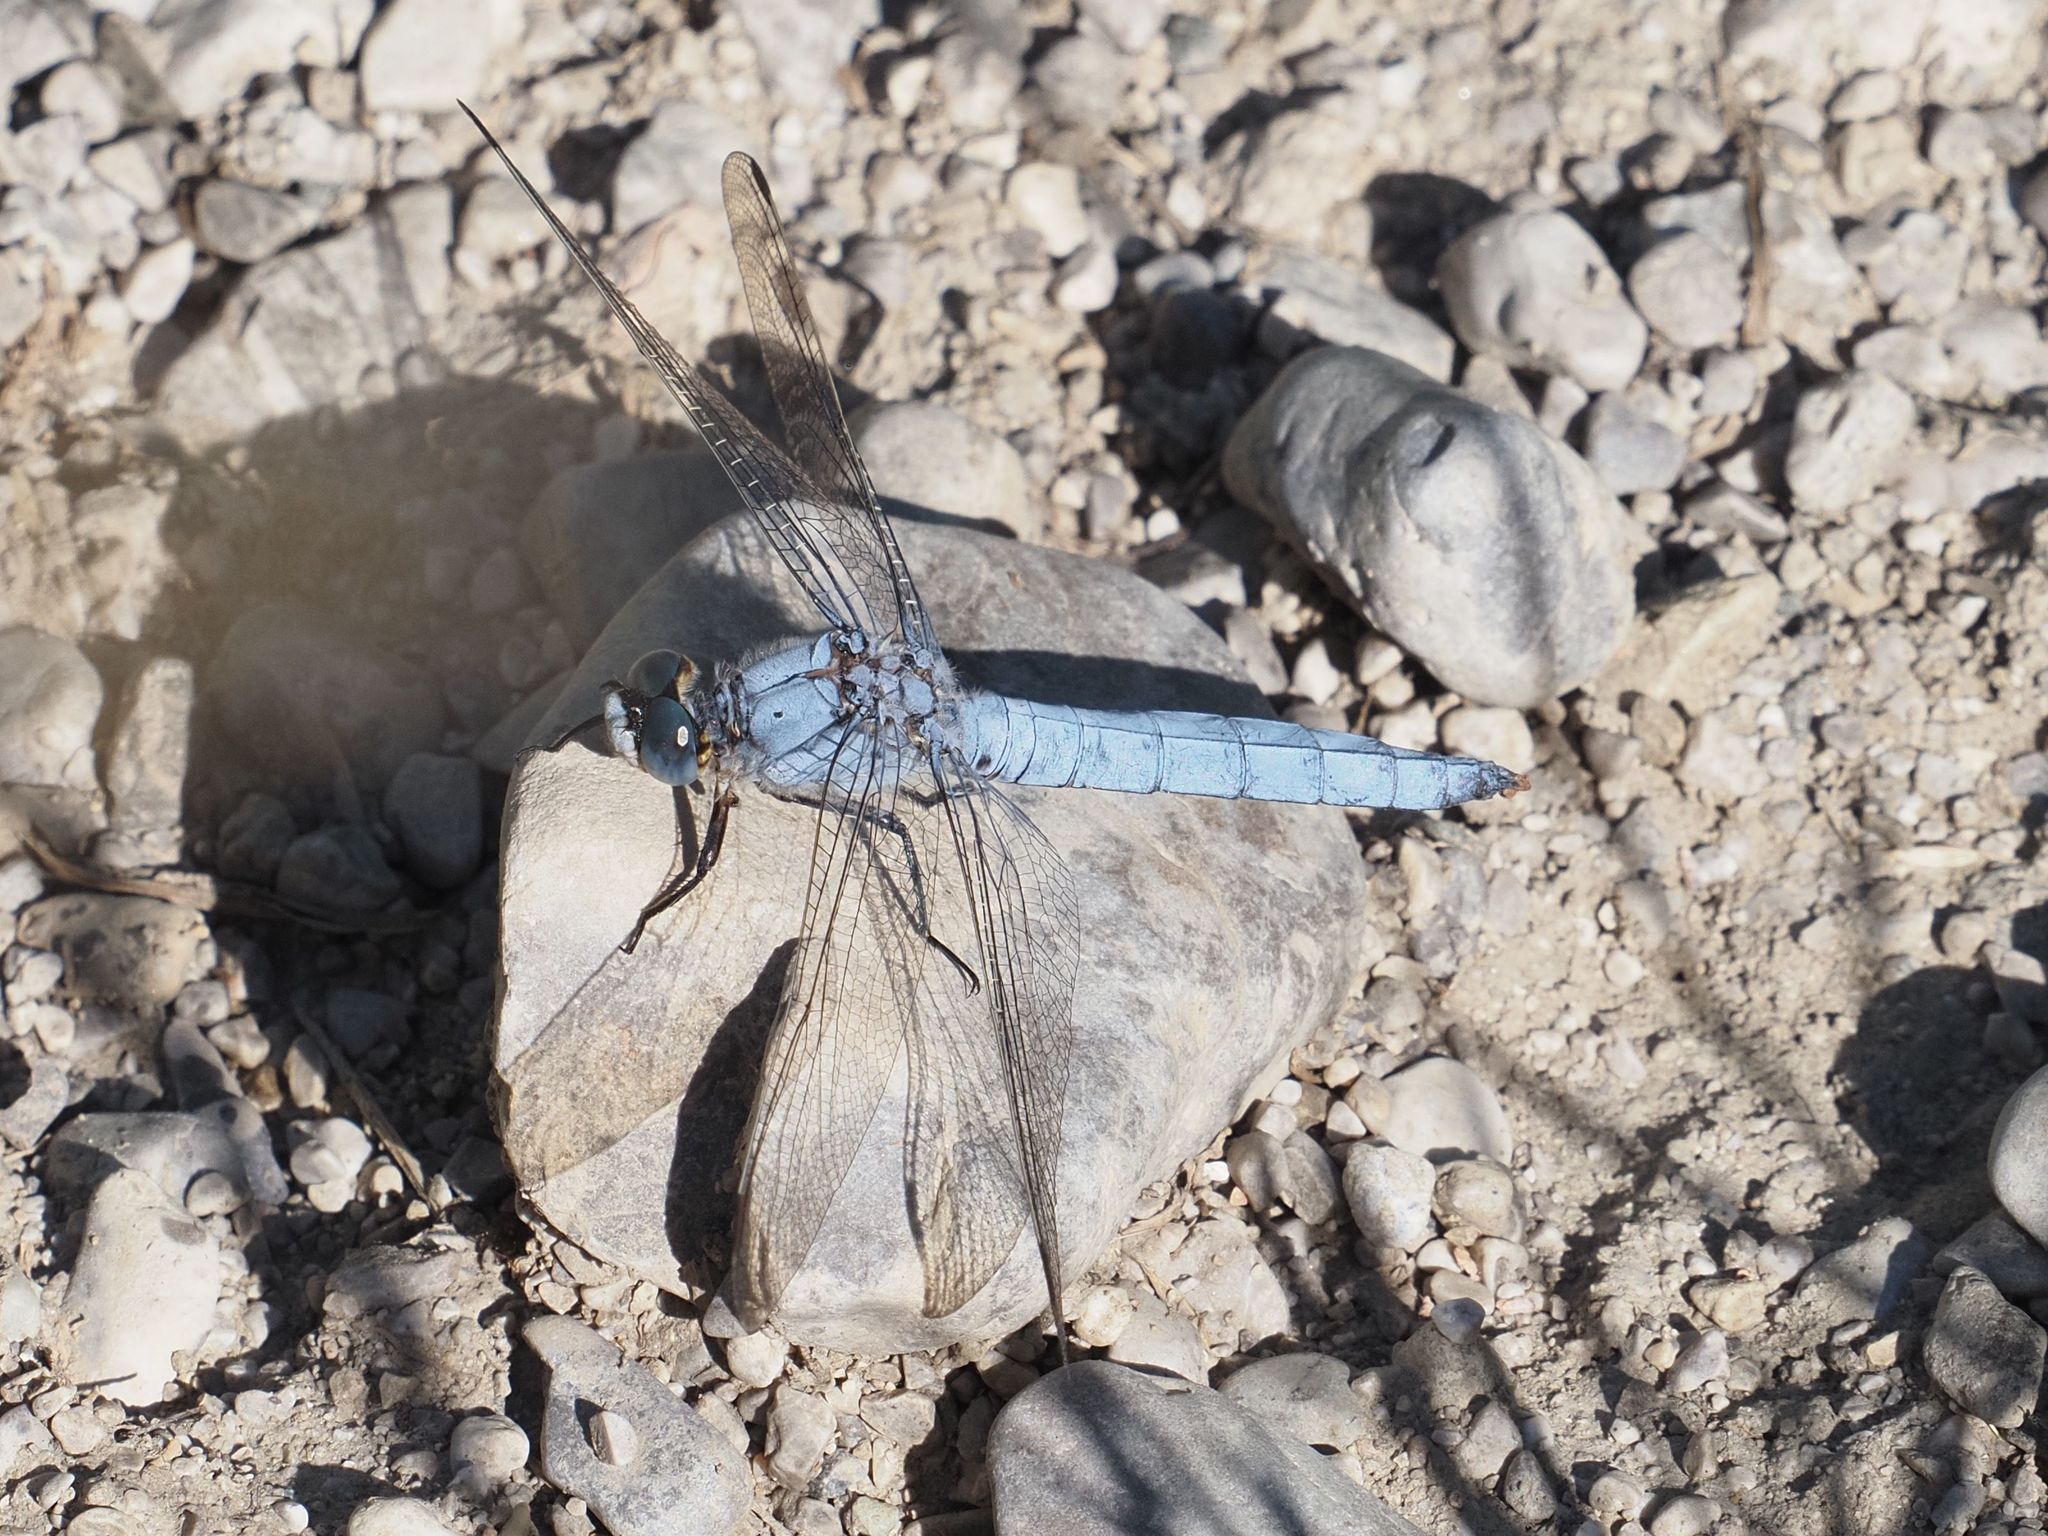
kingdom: Animalia
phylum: Arthropoda
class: Insecta
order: Odonata
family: Libellulidae
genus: Orthetrum
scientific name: Orthetrum brunneum
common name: Southern skimmer
